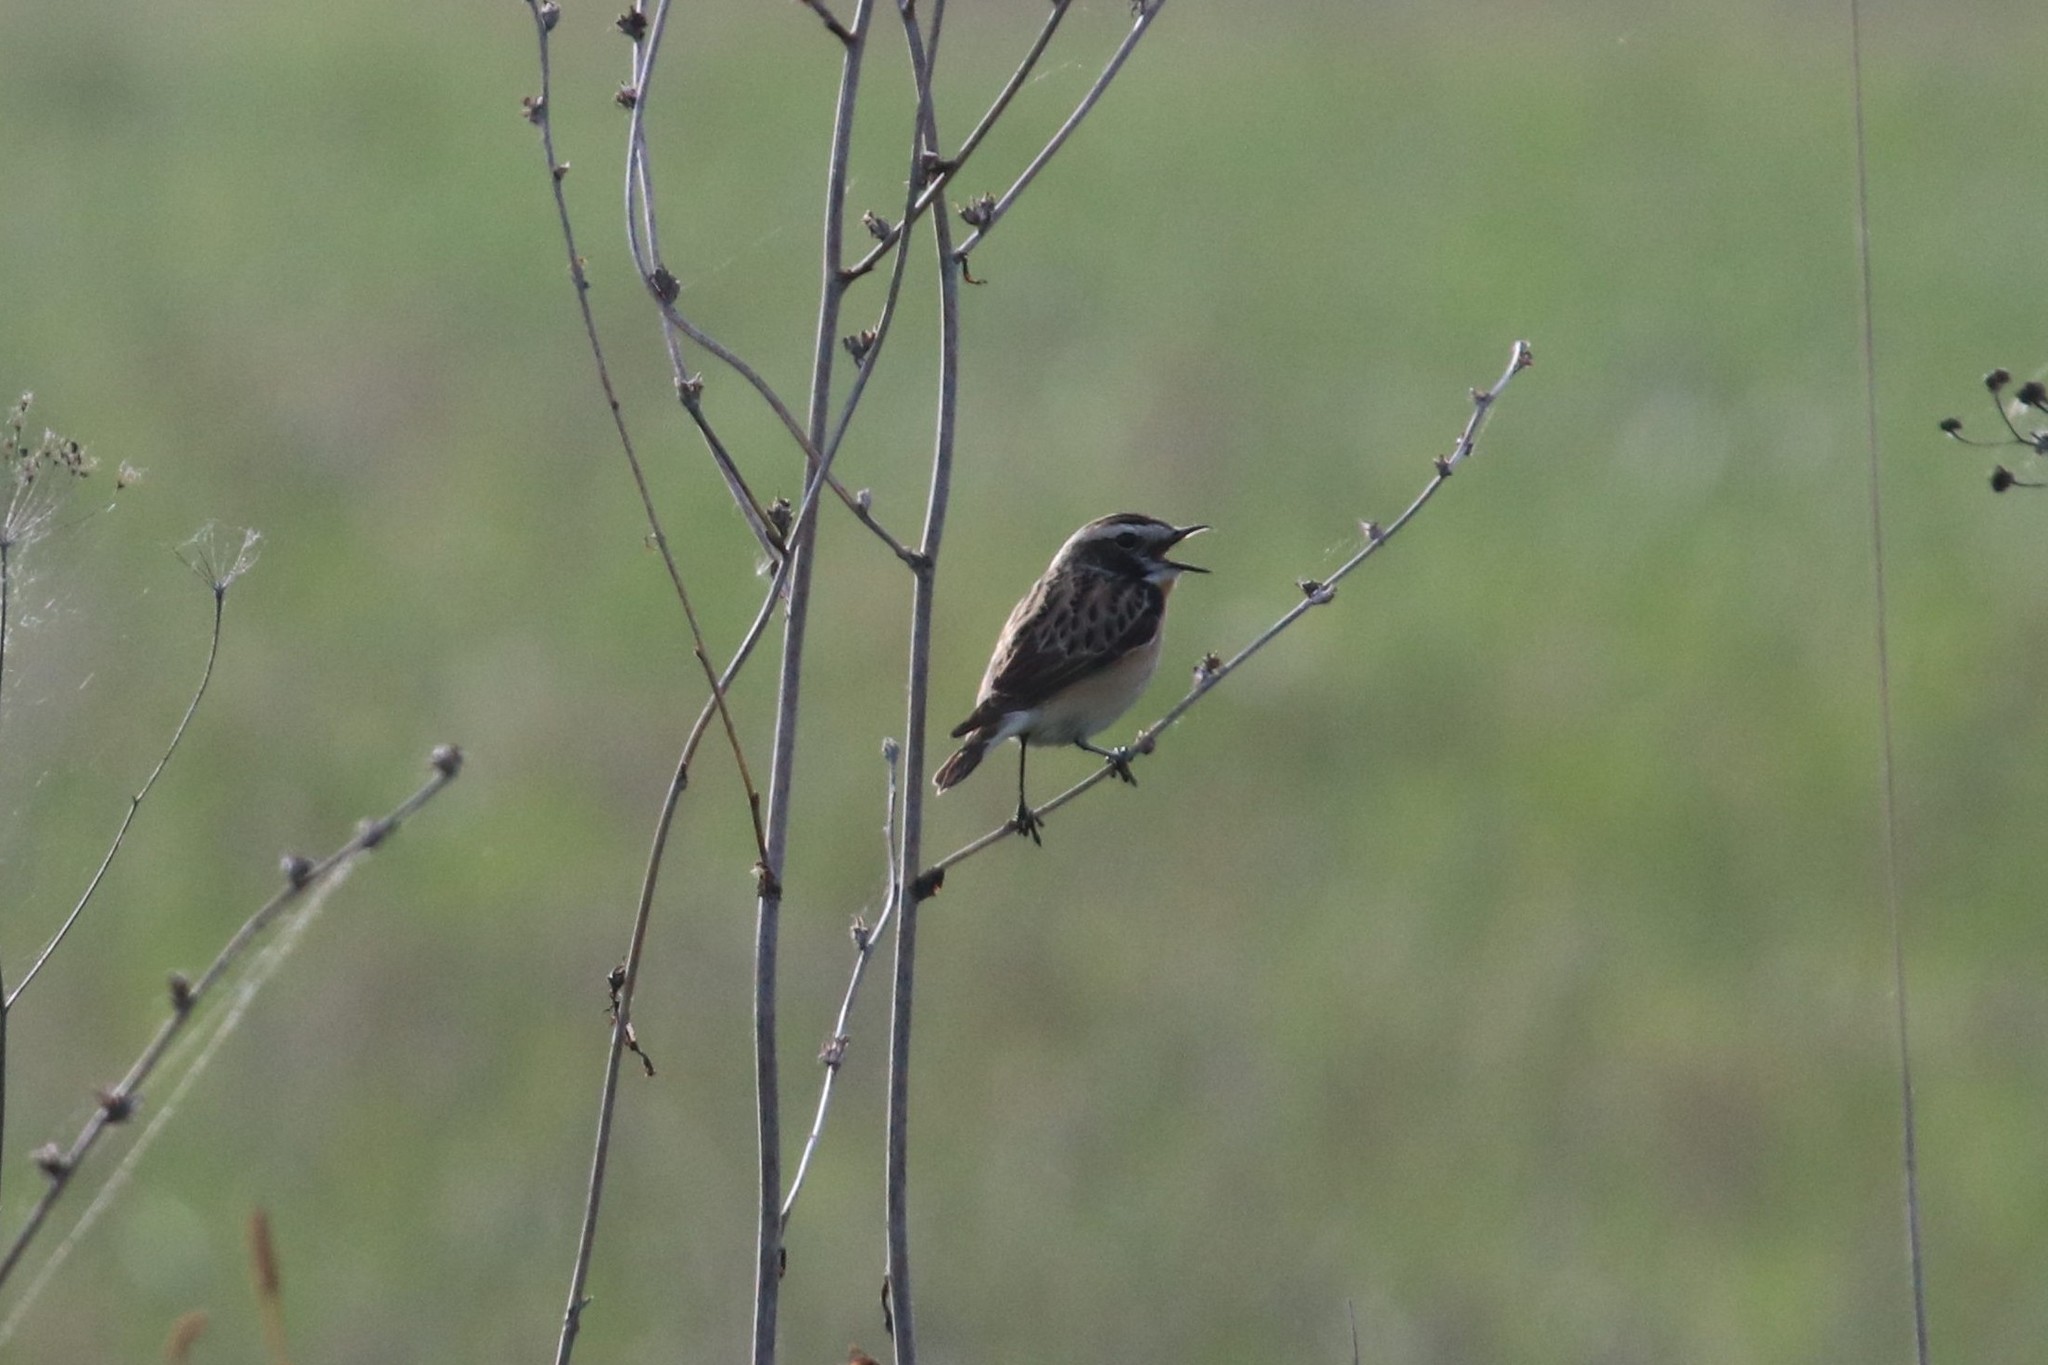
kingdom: Animalia
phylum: Chordata
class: Aves
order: Passeriformes
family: Muscicapidae
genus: Saxicola
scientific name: Saxicola rubetra
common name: Whinchat
